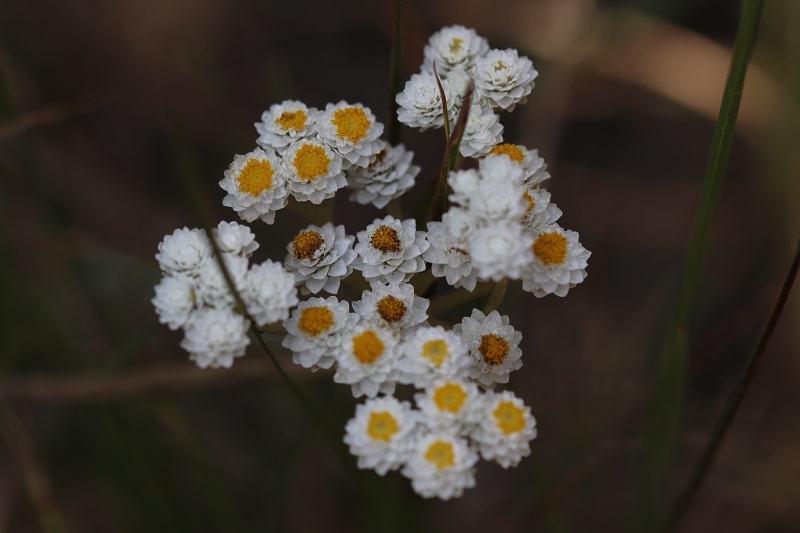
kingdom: Plantae
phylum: Tracheophyta
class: Magnoliopsida
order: Asterales
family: Asteraceae
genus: Helichrysum
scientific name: Helichrysum felinum
